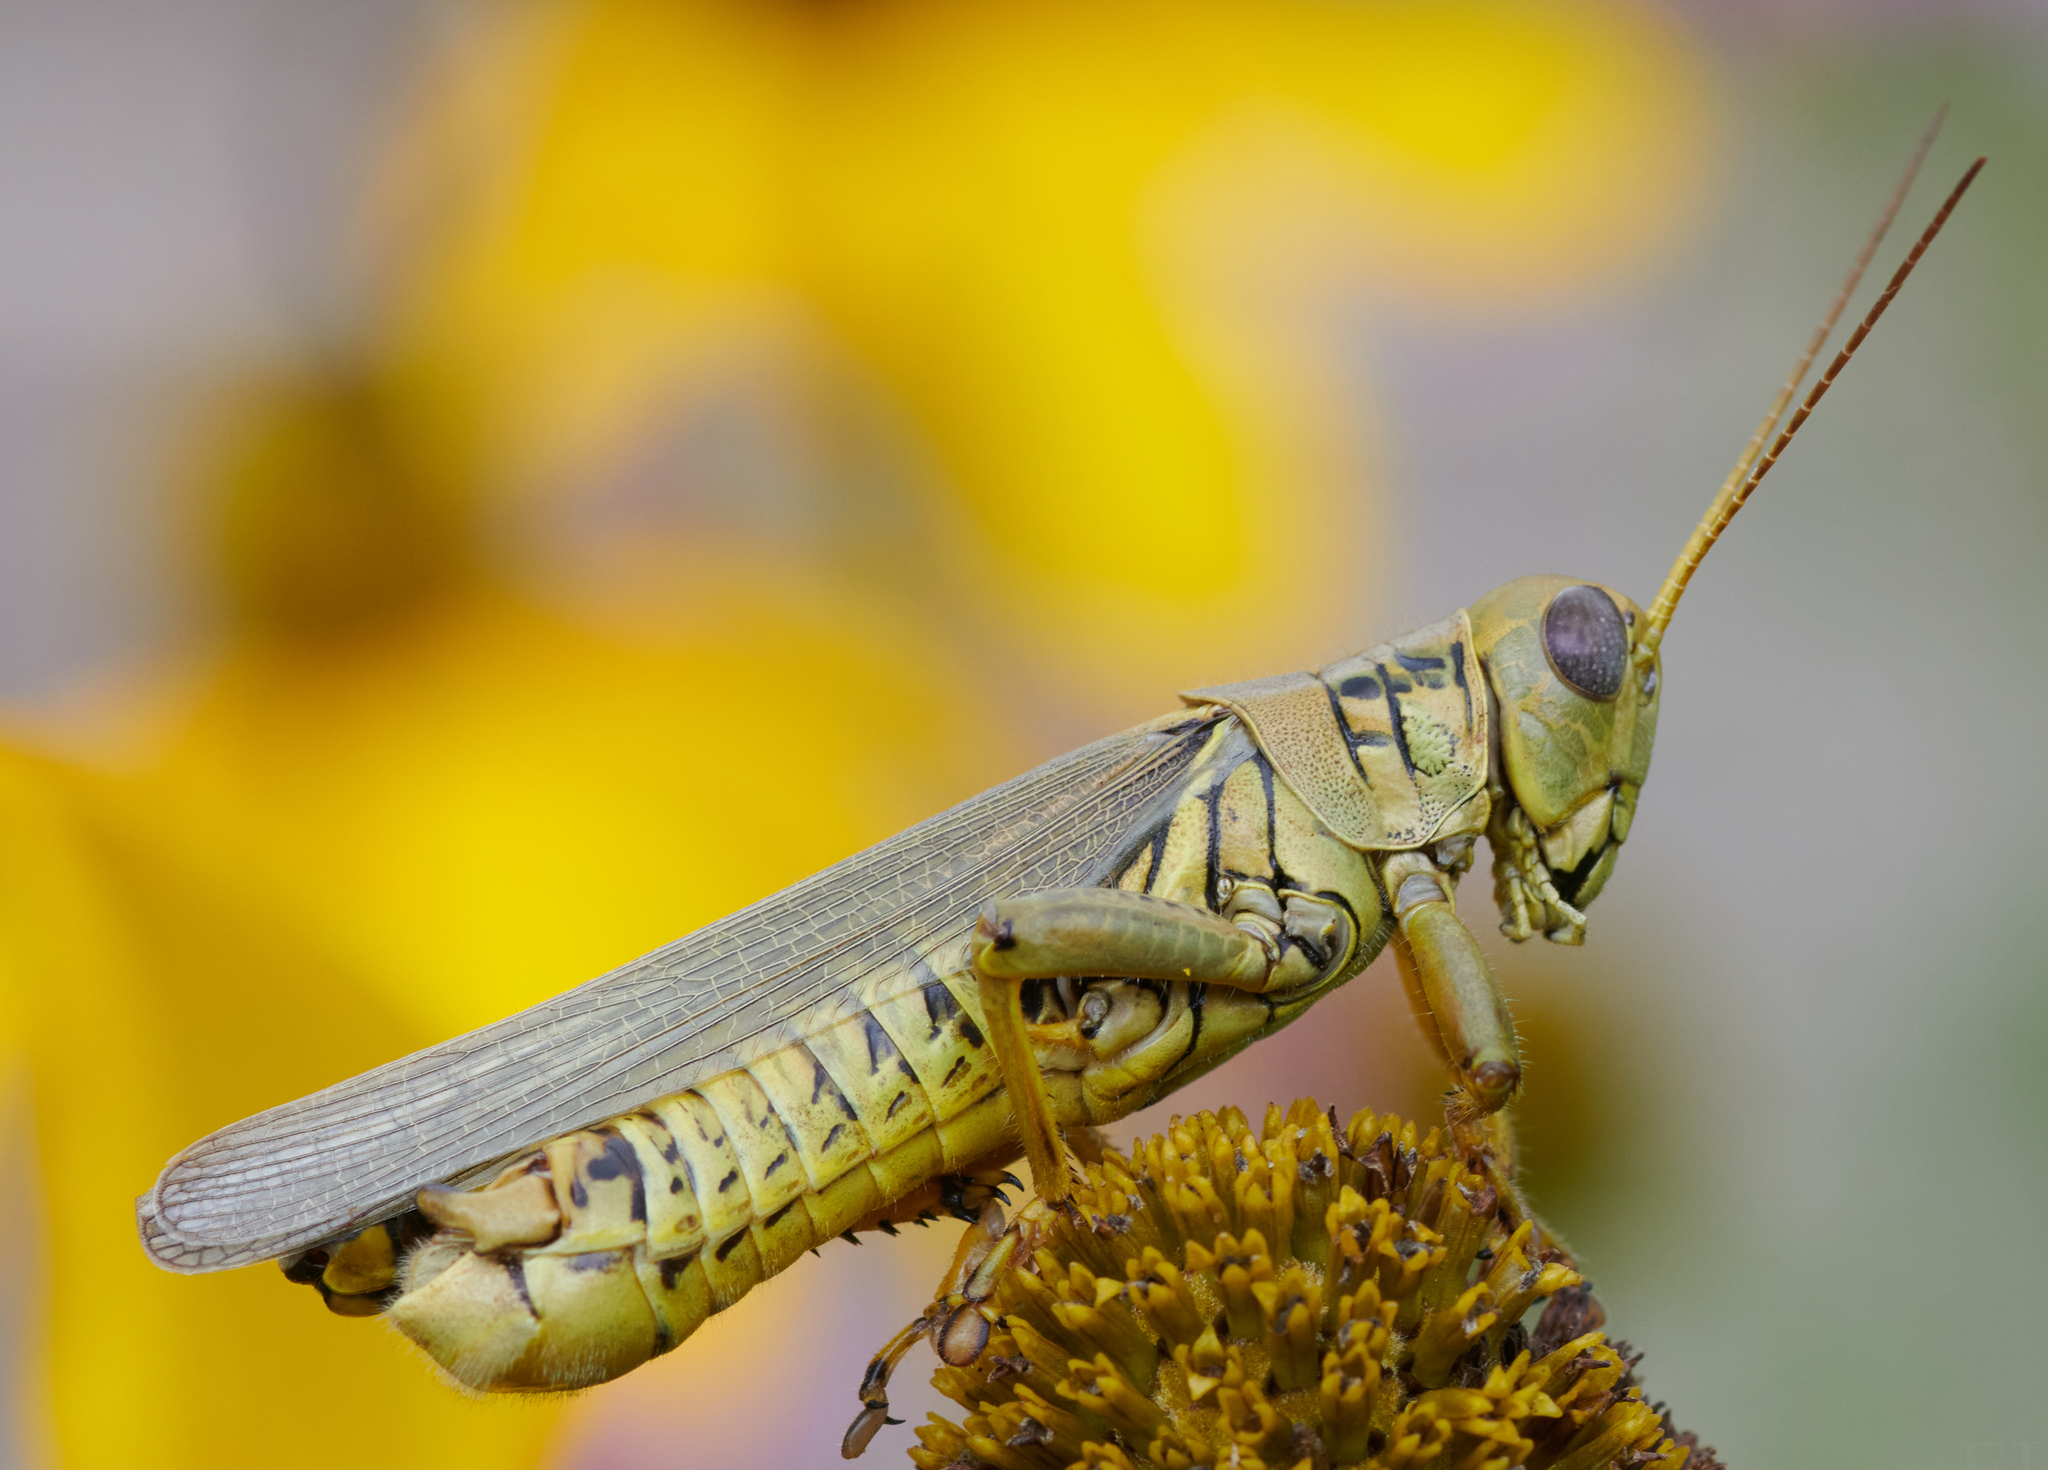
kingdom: Animalia
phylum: Arthropoda
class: Insecta
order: Orthoptera
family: Acrididae
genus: Melanoplus
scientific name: Melanoplus differentialis
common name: Differential grasshopper
